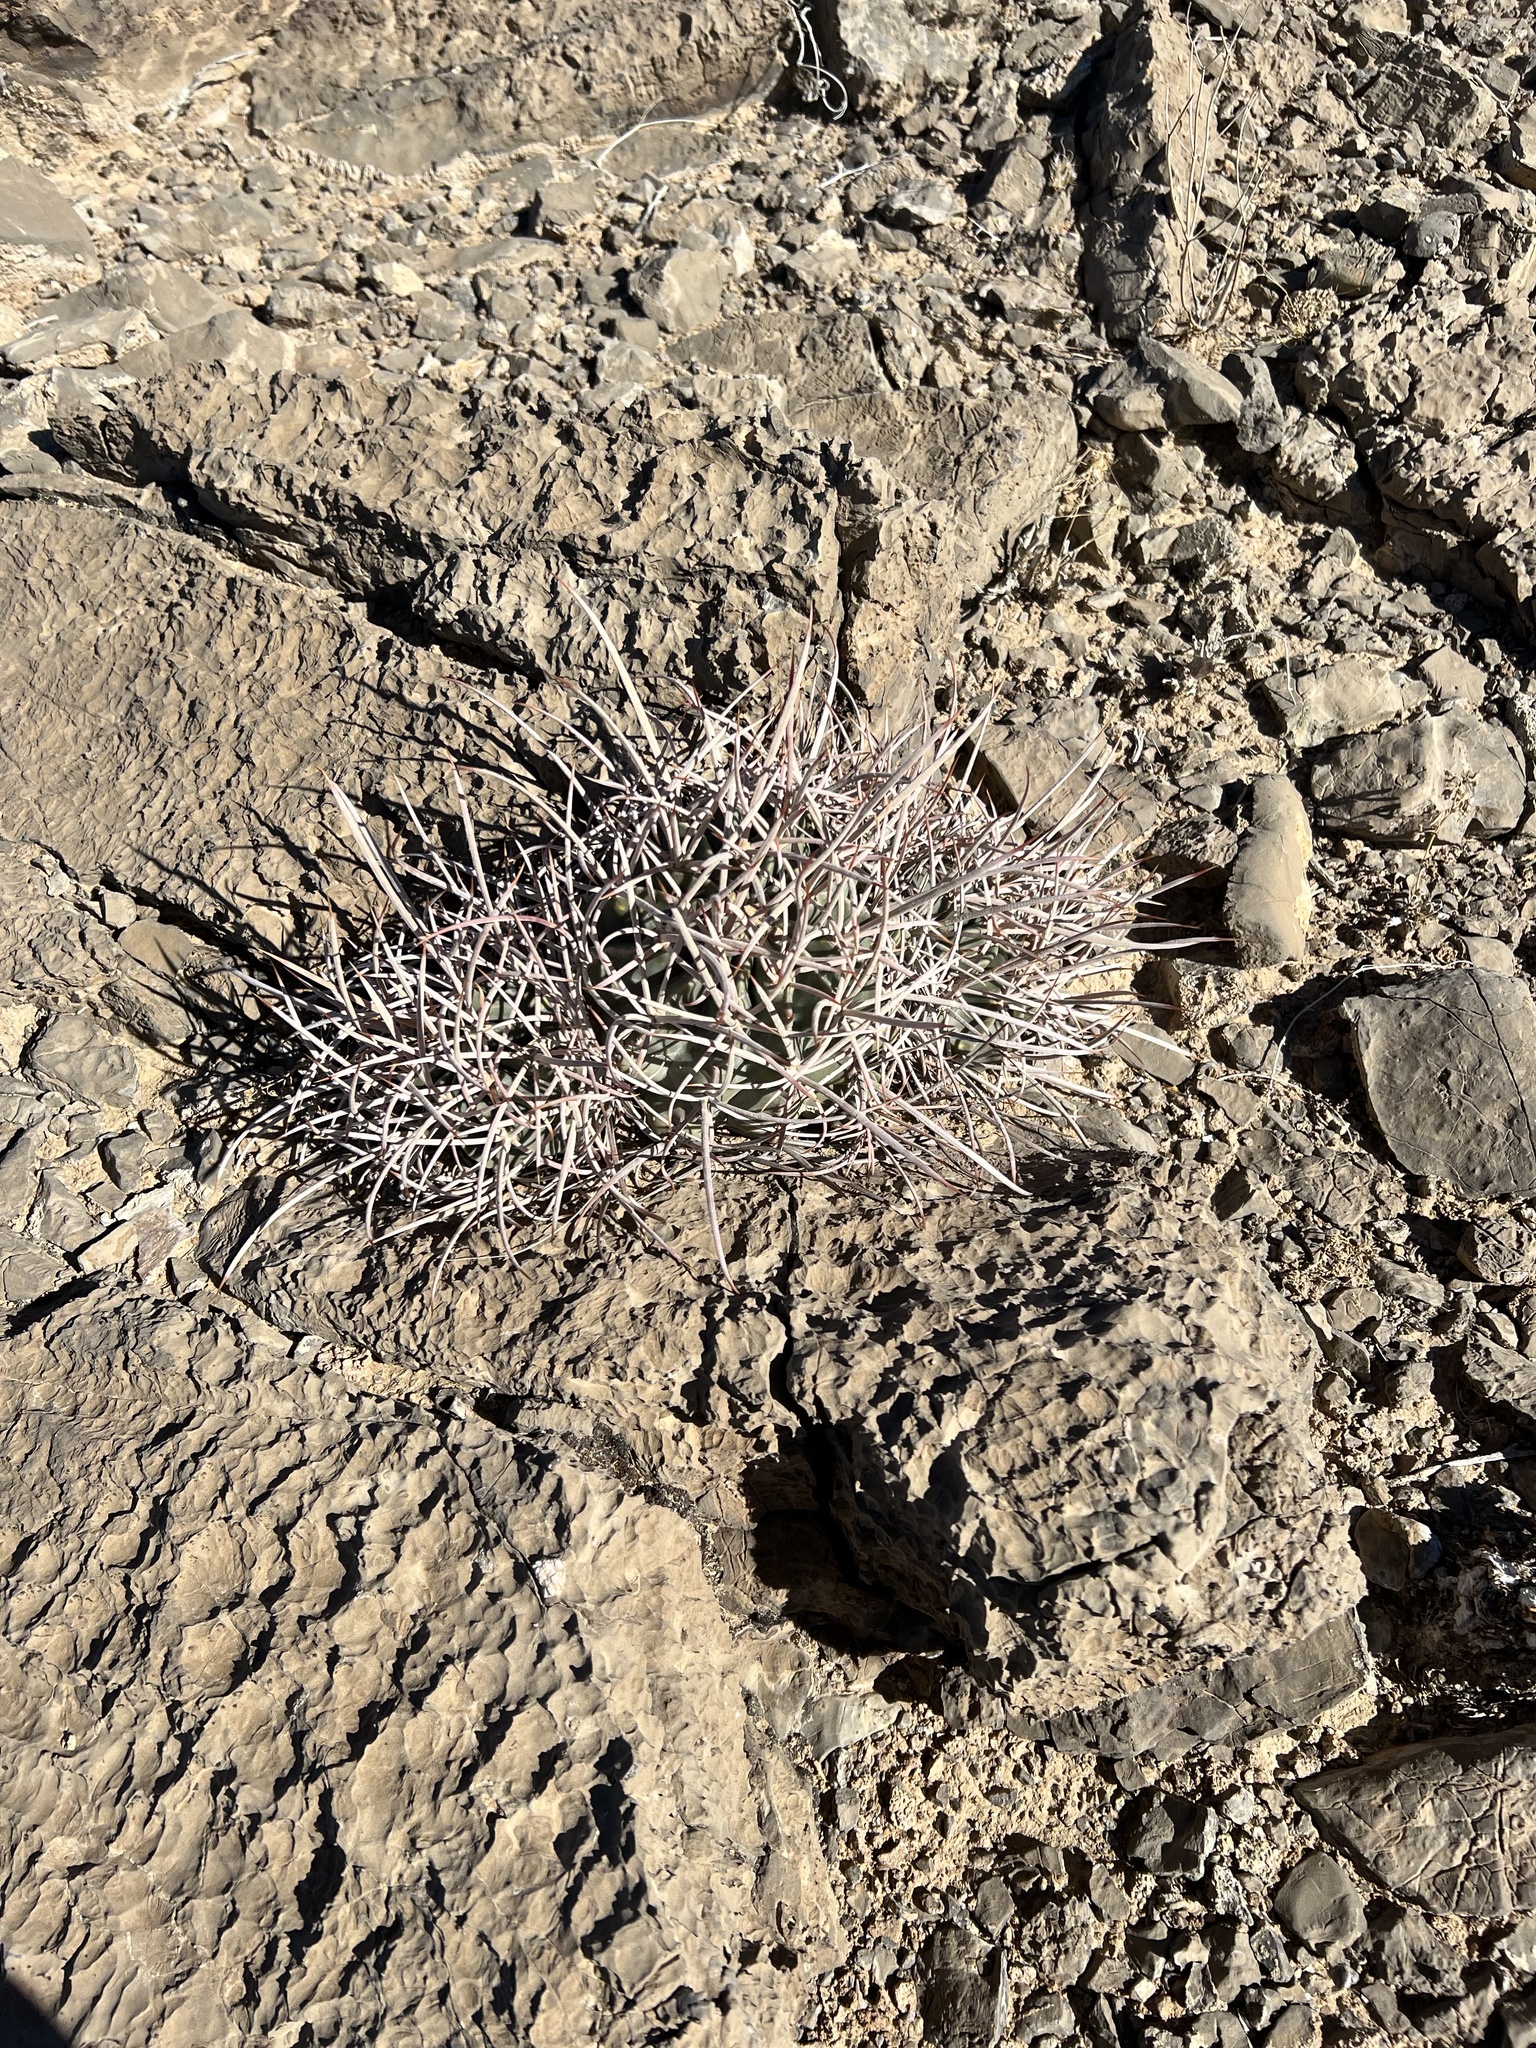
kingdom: Plantae
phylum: Tracheophyta
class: Magnoliopsida
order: Caryophyllales
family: Cactaceae
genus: Echinocactus
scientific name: Echinocactus polycephalus
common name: Cottontop cactus
